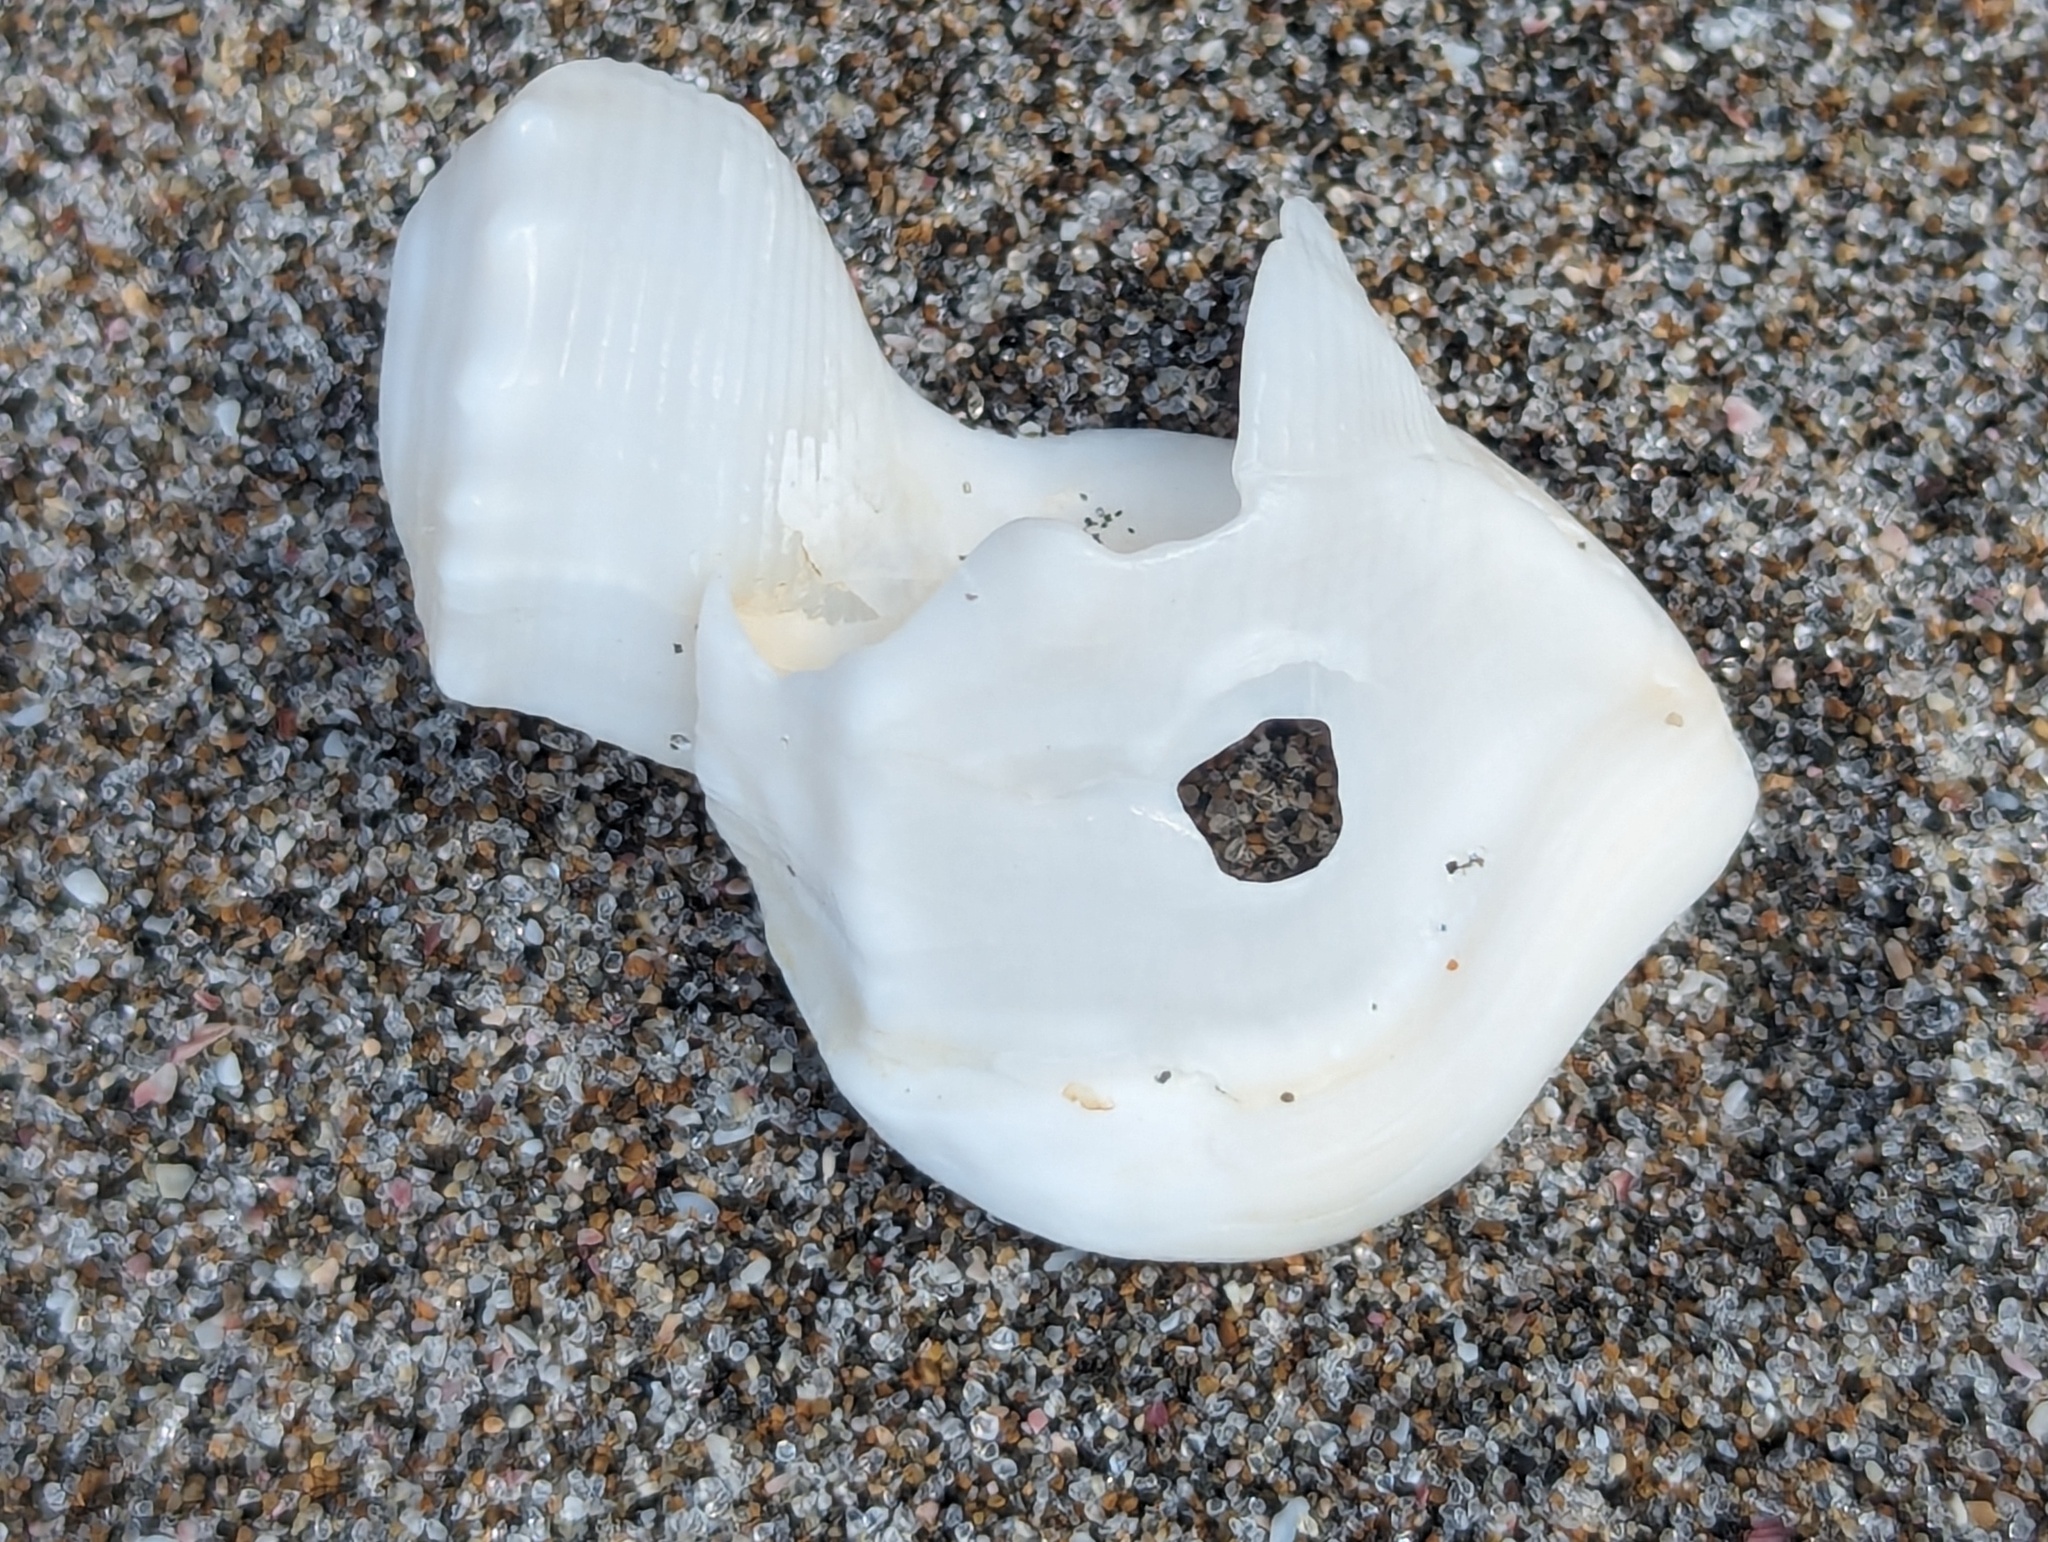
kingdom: Animalia
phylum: Mollusca
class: Gastropoda
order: Littorinimorpha
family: Struthiolariidae
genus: Struthiolaria
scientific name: Struthiolaria papulosa
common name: Large ostrich foot
